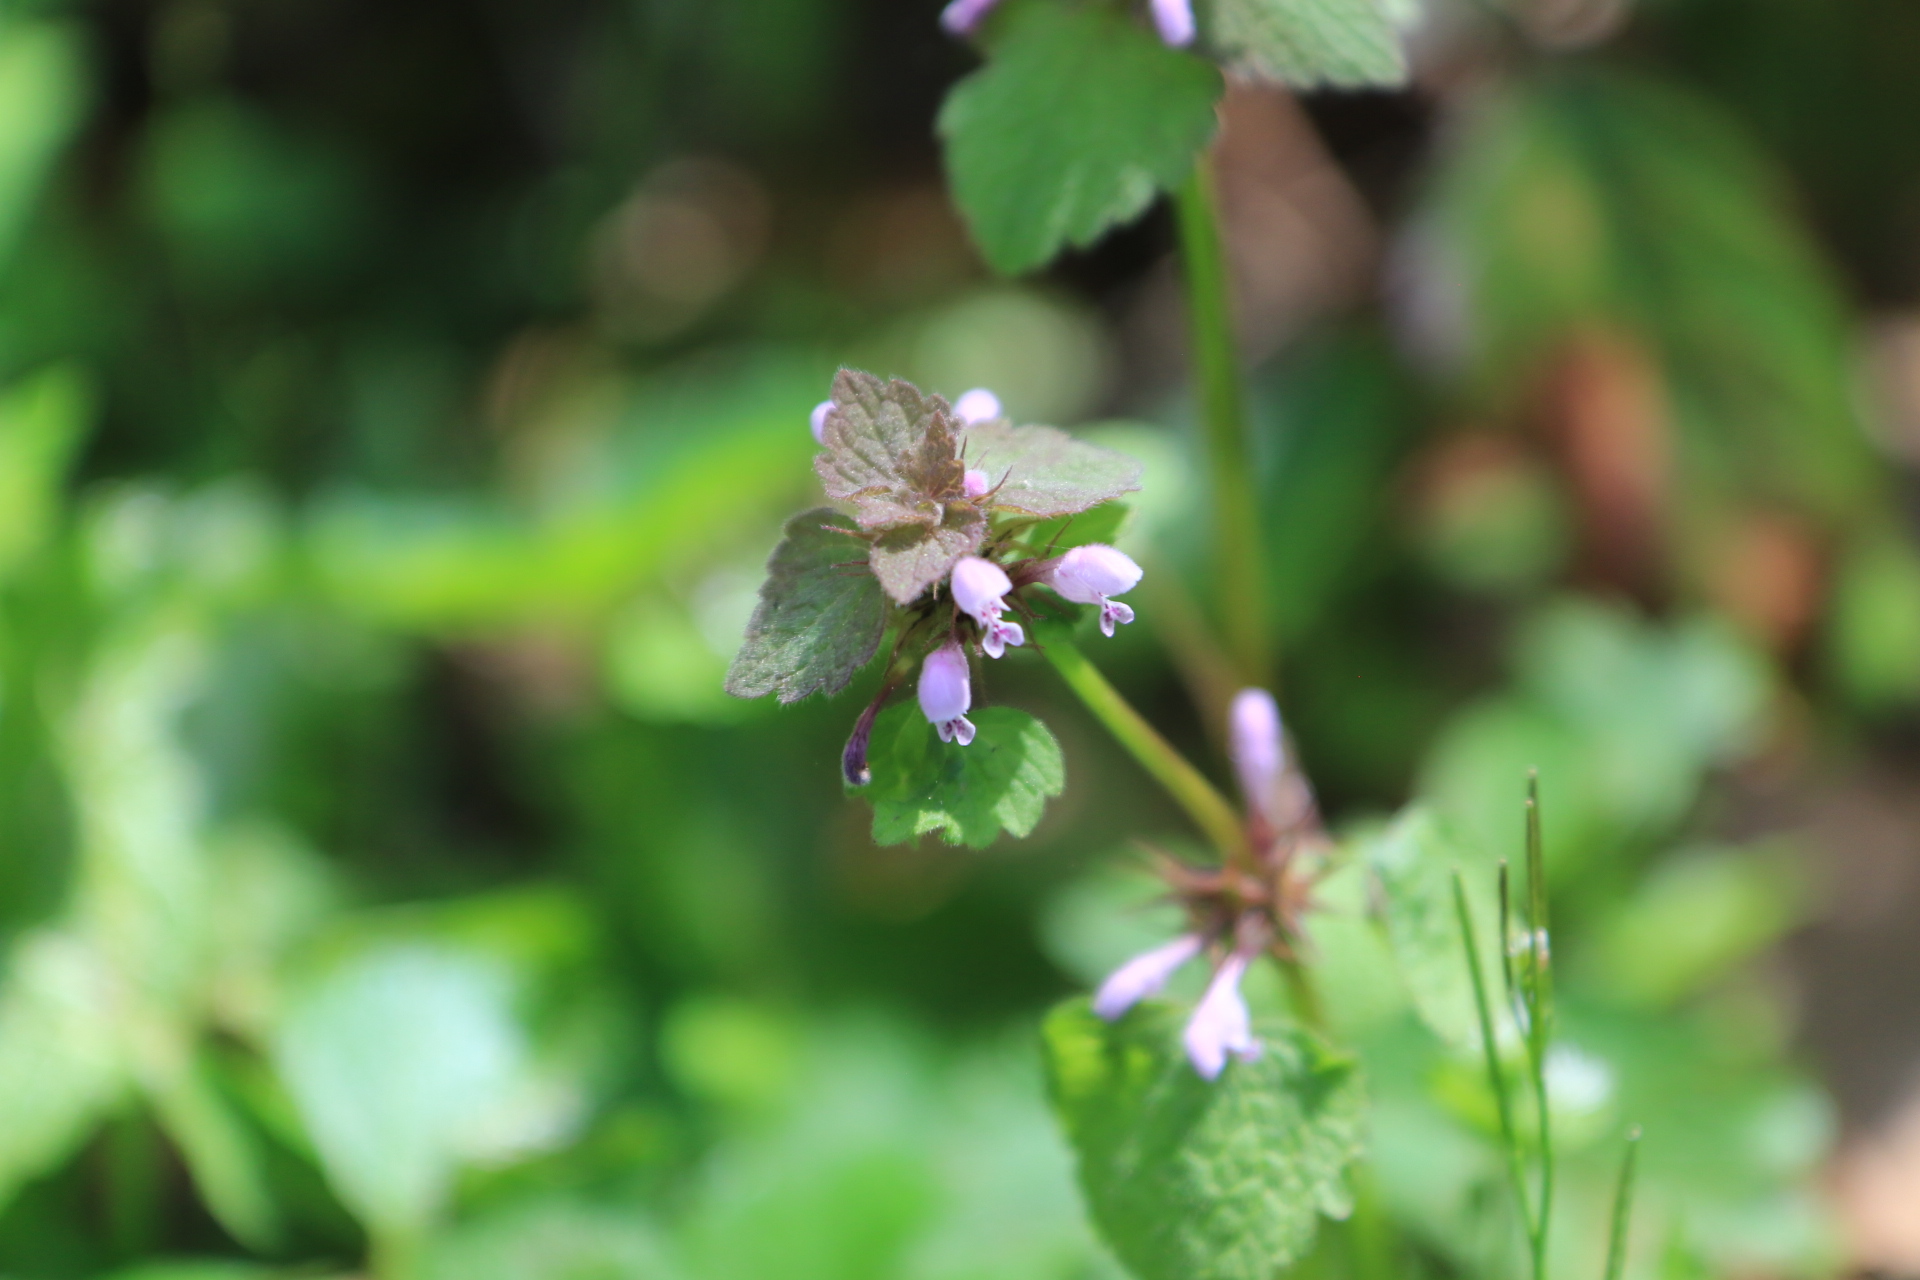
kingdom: Plantae
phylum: Tracheophyta
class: Magnoliopsida
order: Lamiales
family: Lamiaceae
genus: Lamium
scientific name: Lamium purpureum
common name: Red dead-nettle
